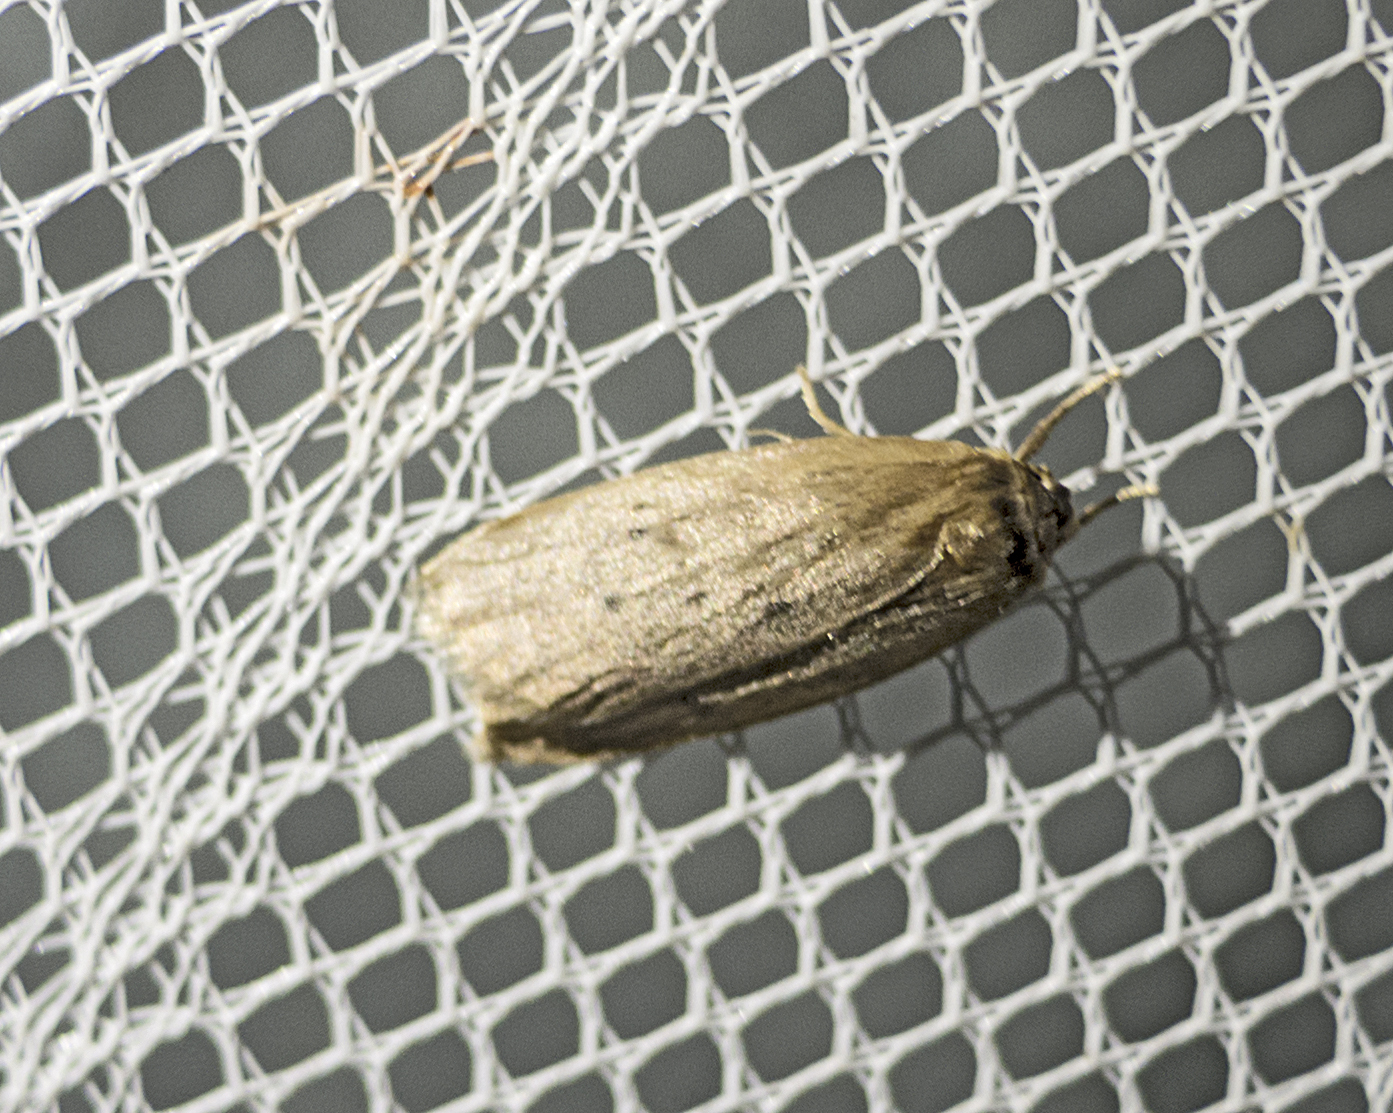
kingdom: Animalia
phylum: Arthropoda
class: Insecta
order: Lepidoptera
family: Erebidae
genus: Pelosia
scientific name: Pelosia obtusa
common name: Small dotted footman
